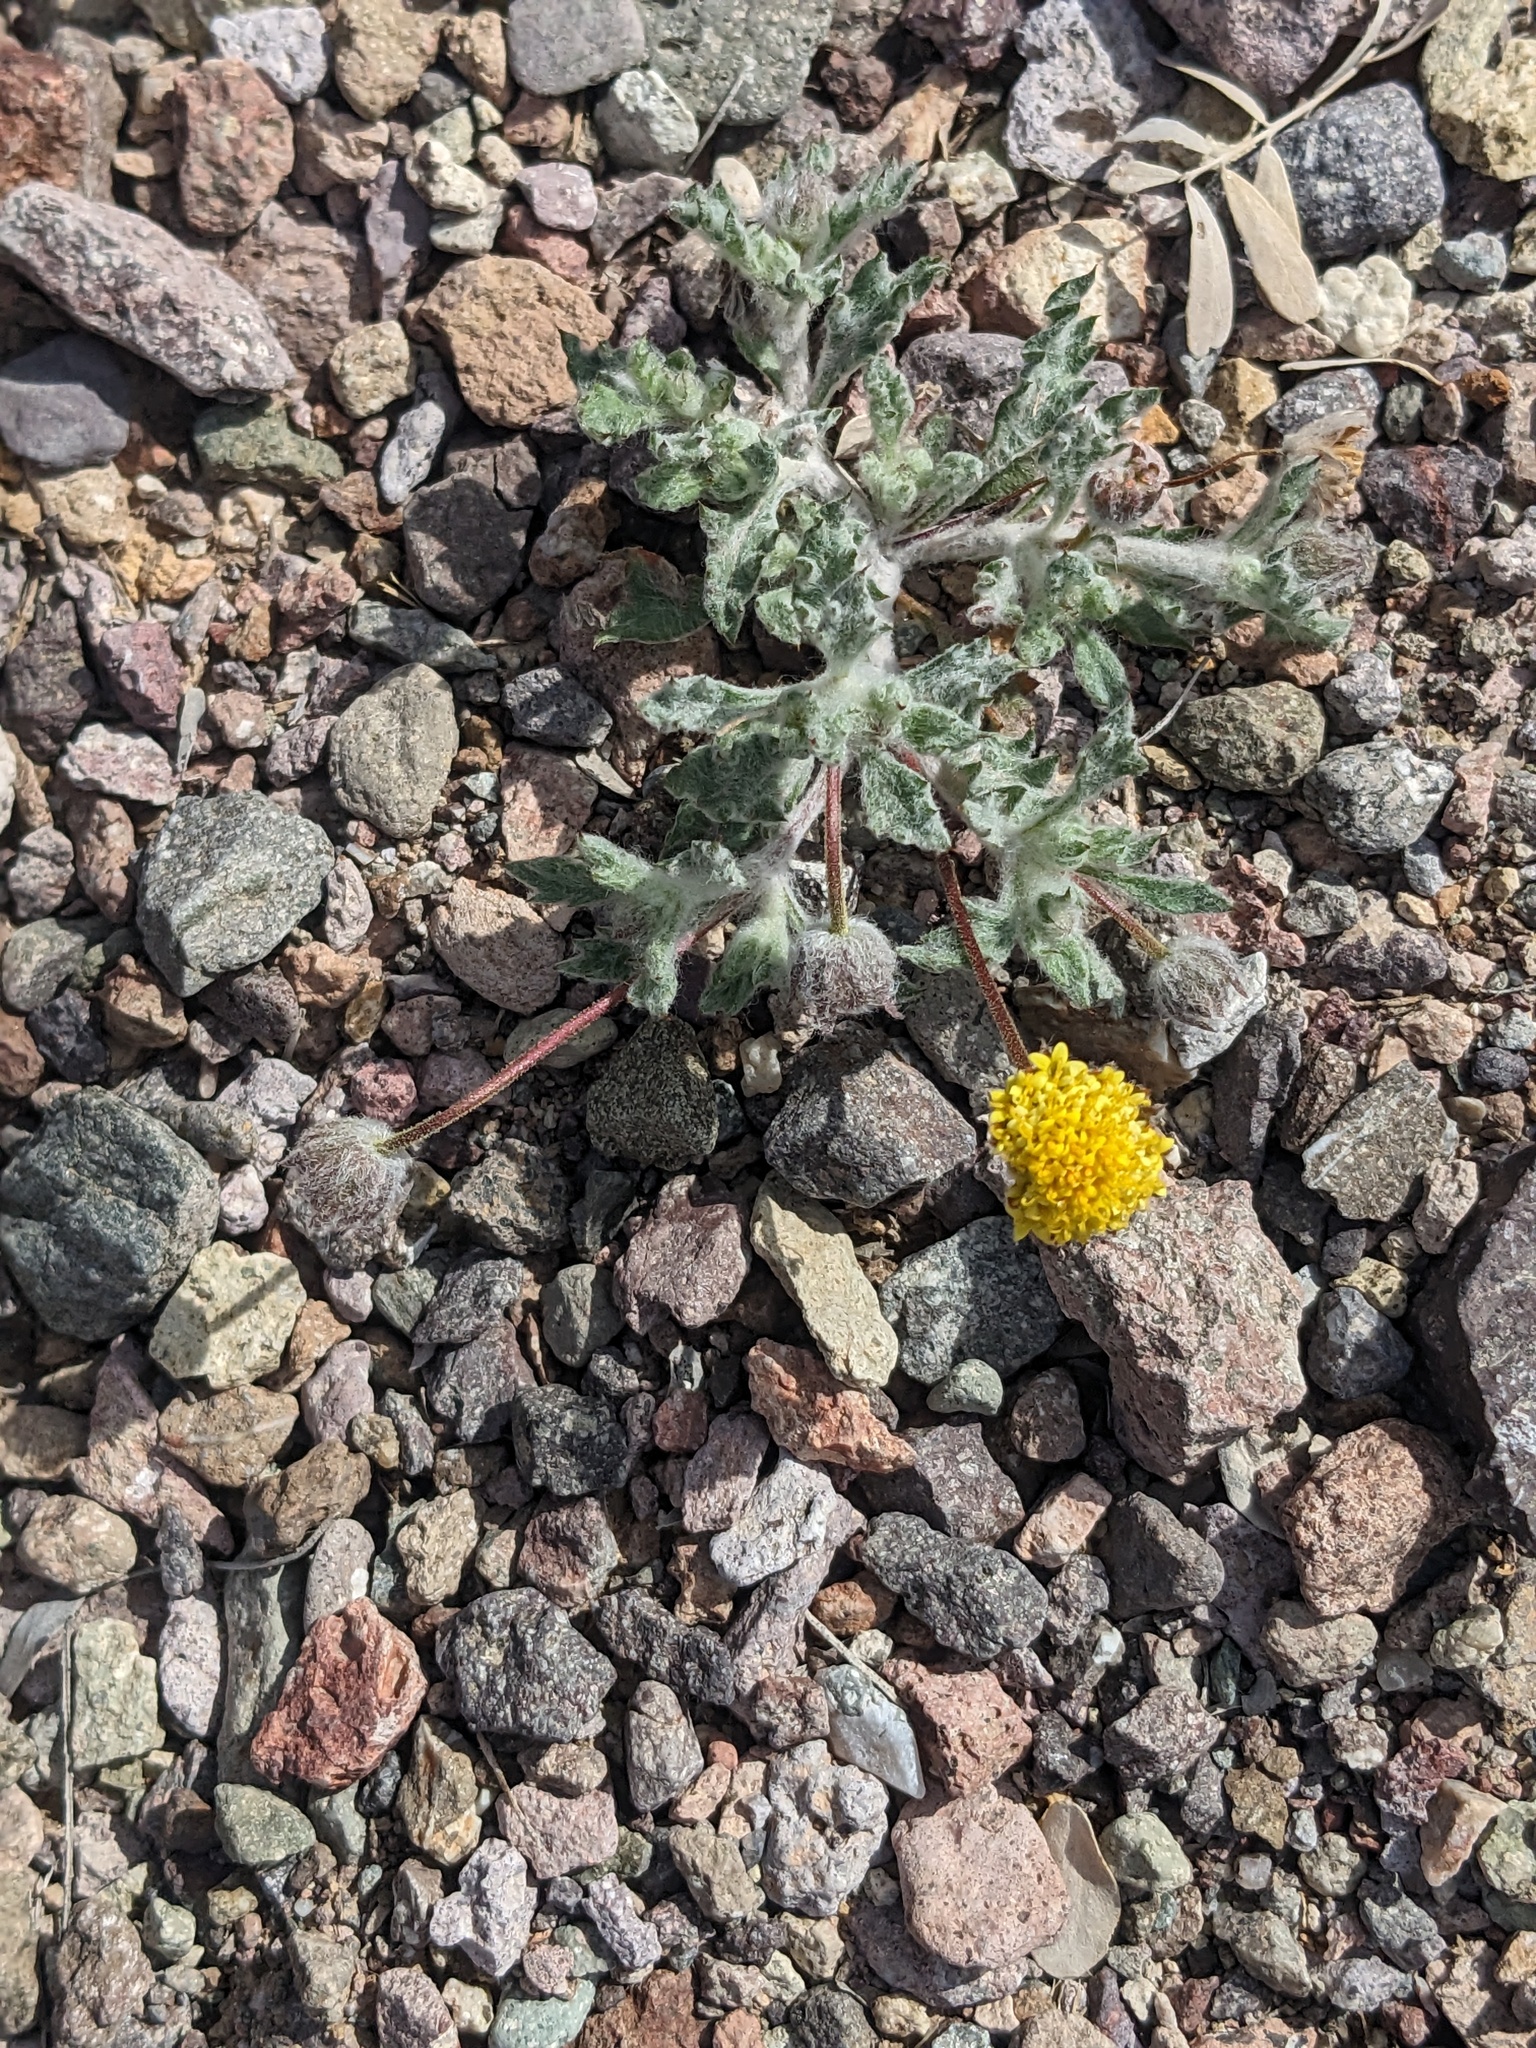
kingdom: Plantae
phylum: Tracheophyta
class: Magnoliopsida
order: Asterales
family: Asteraceae
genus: Trichoptilium
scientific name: Trichoptilium incisum
